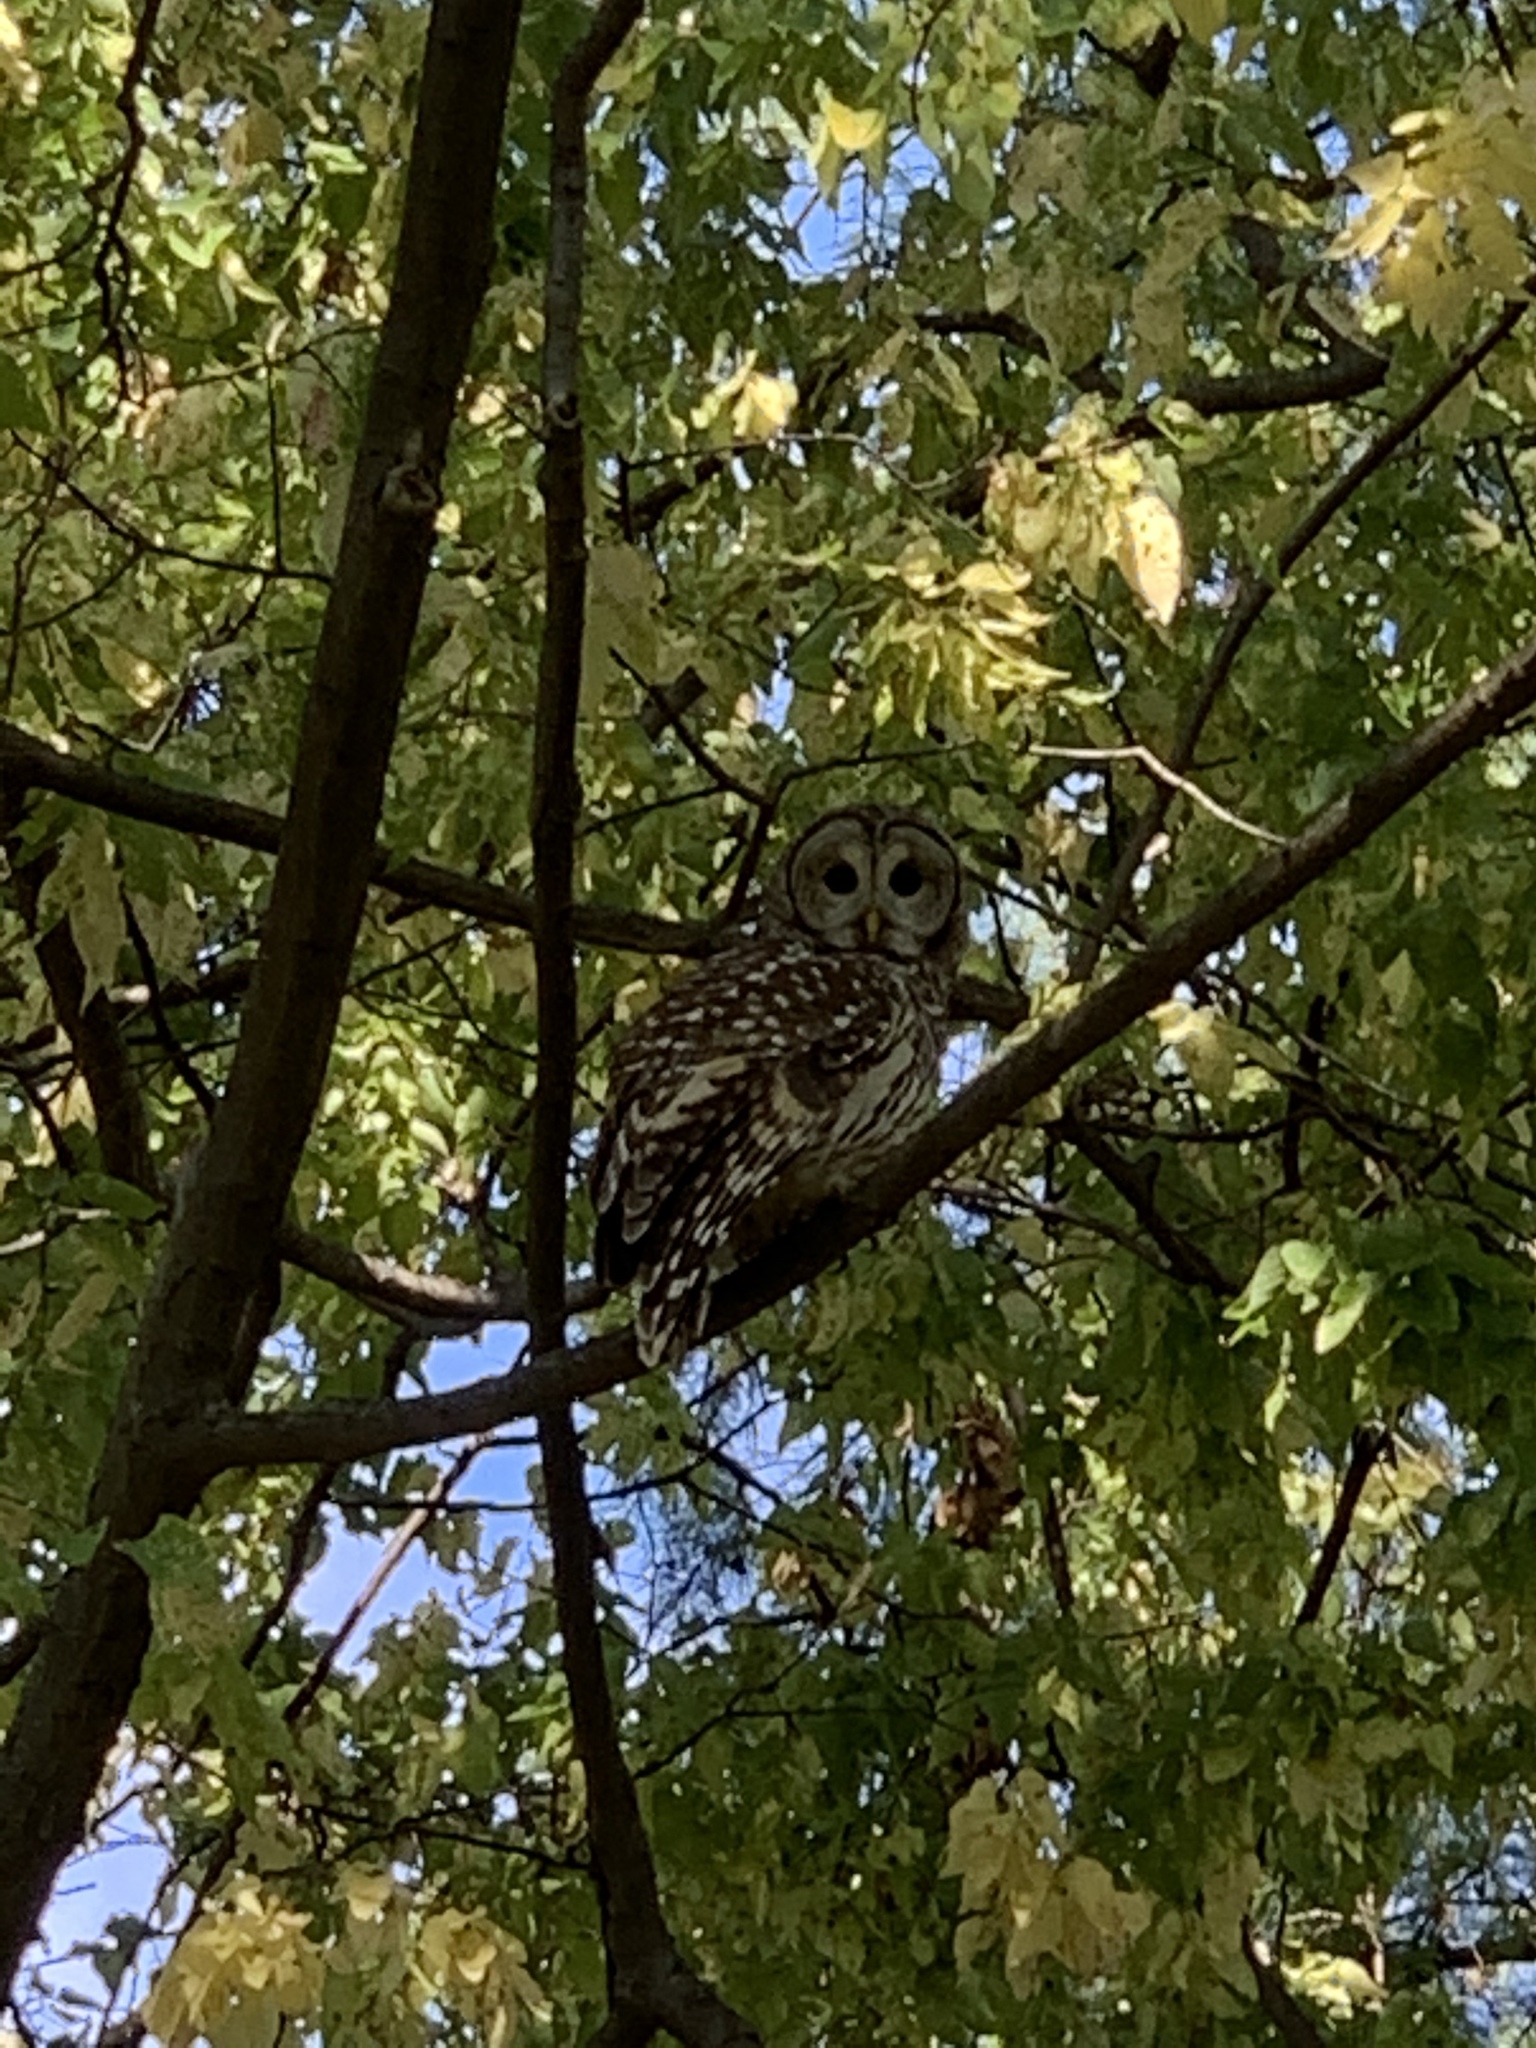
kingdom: Animalia
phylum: Chordata
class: Aves
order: Strigiformes
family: Strigidae
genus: Strix
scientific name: Strix varia
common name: Barred owl
